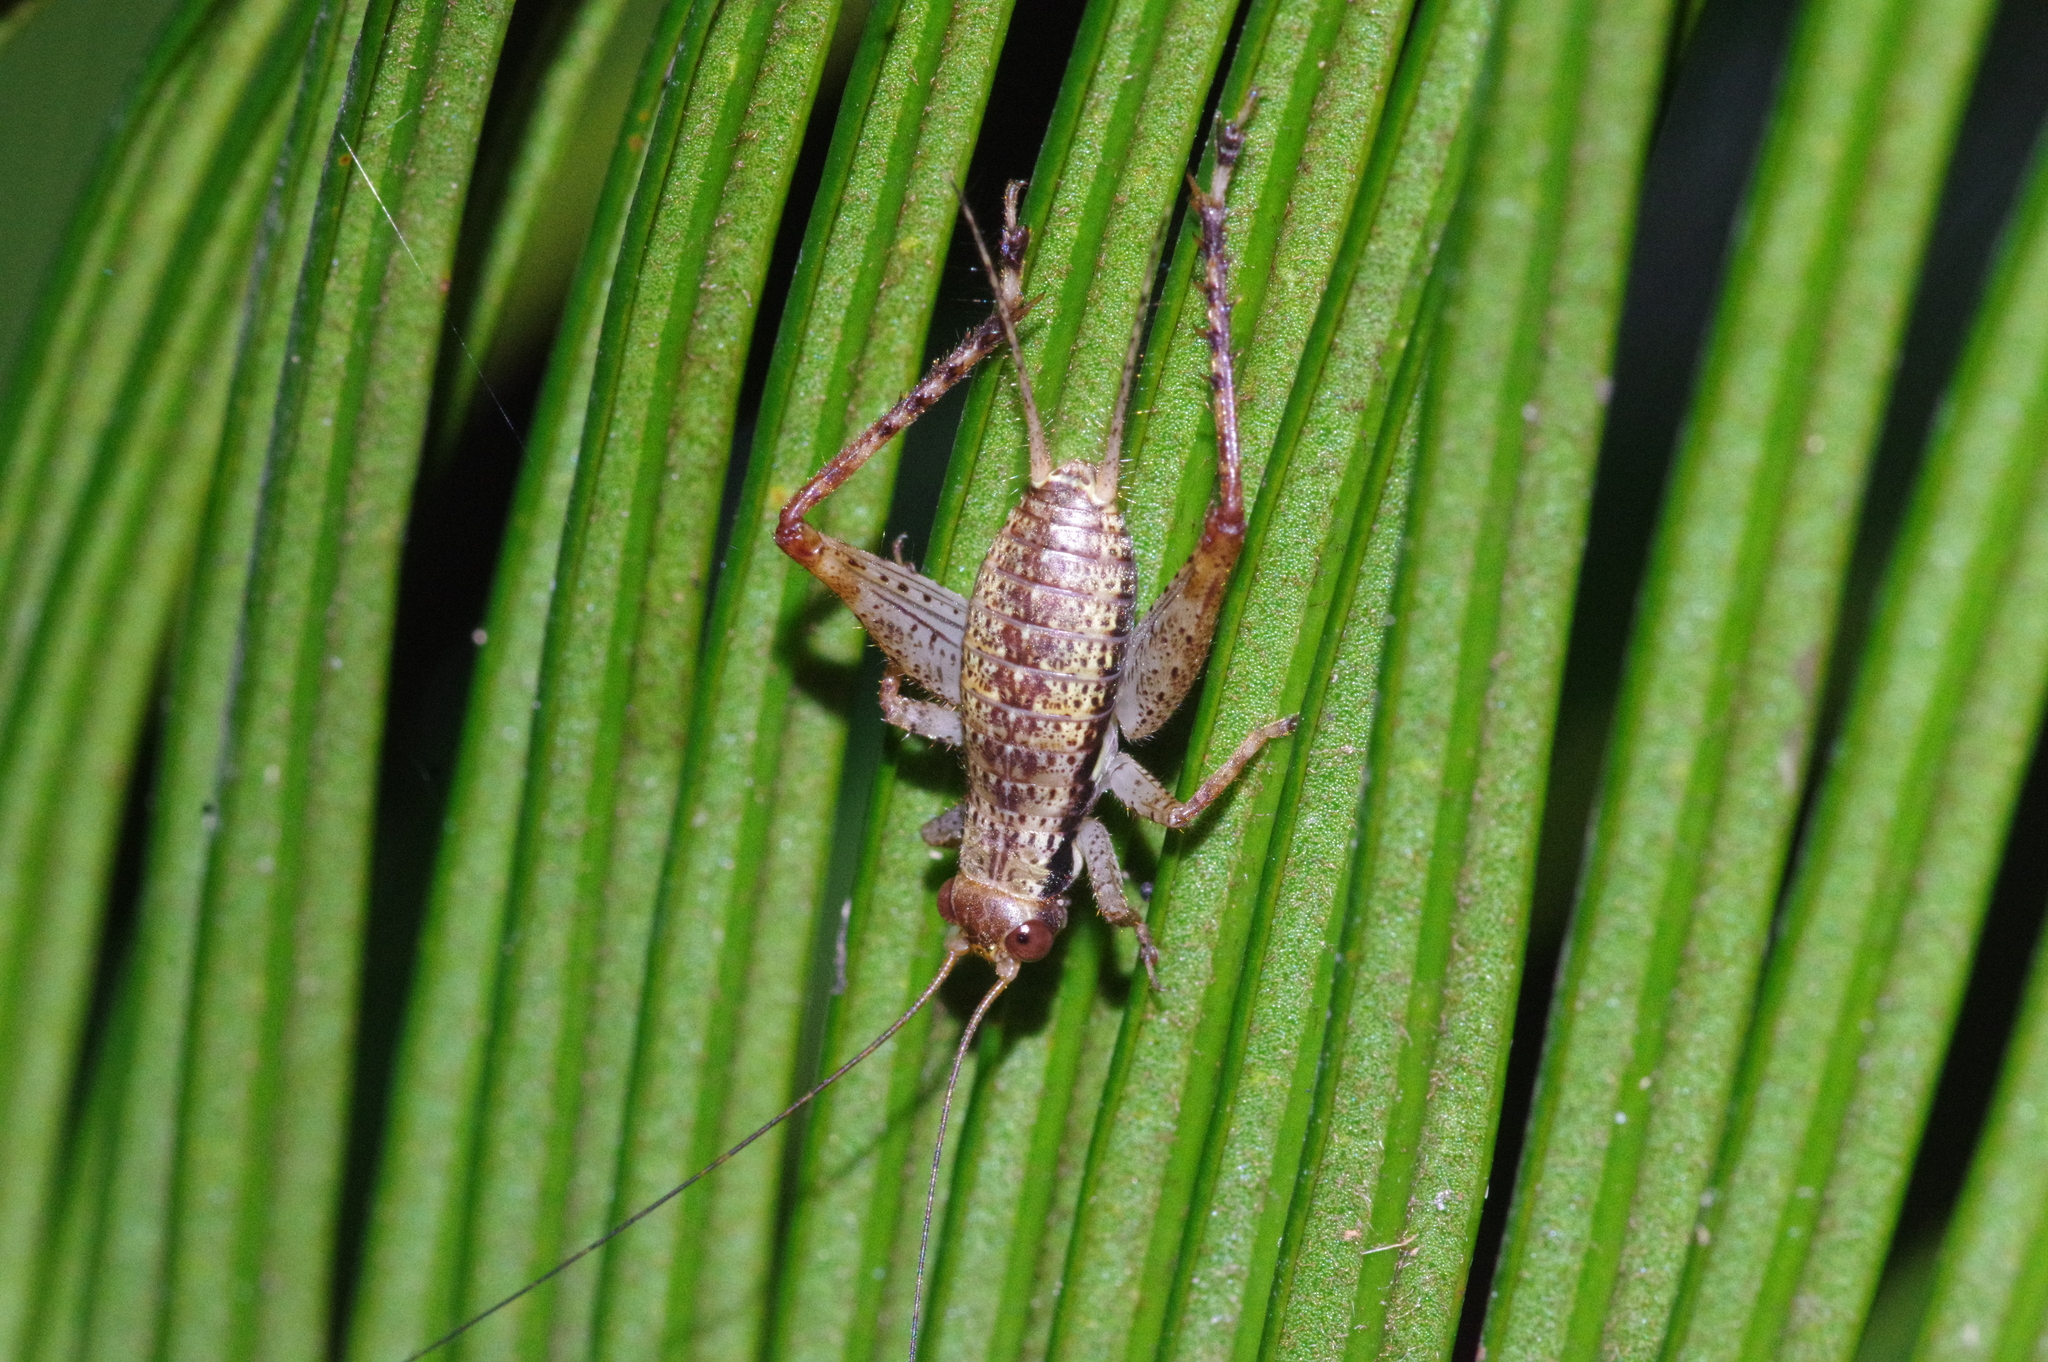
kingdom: Animalia
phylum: Arthropoda
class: Insecta
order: Orthoptera
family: Gryllidae
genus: Cardiodactylus
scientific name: Cardiodactylus guttulus
